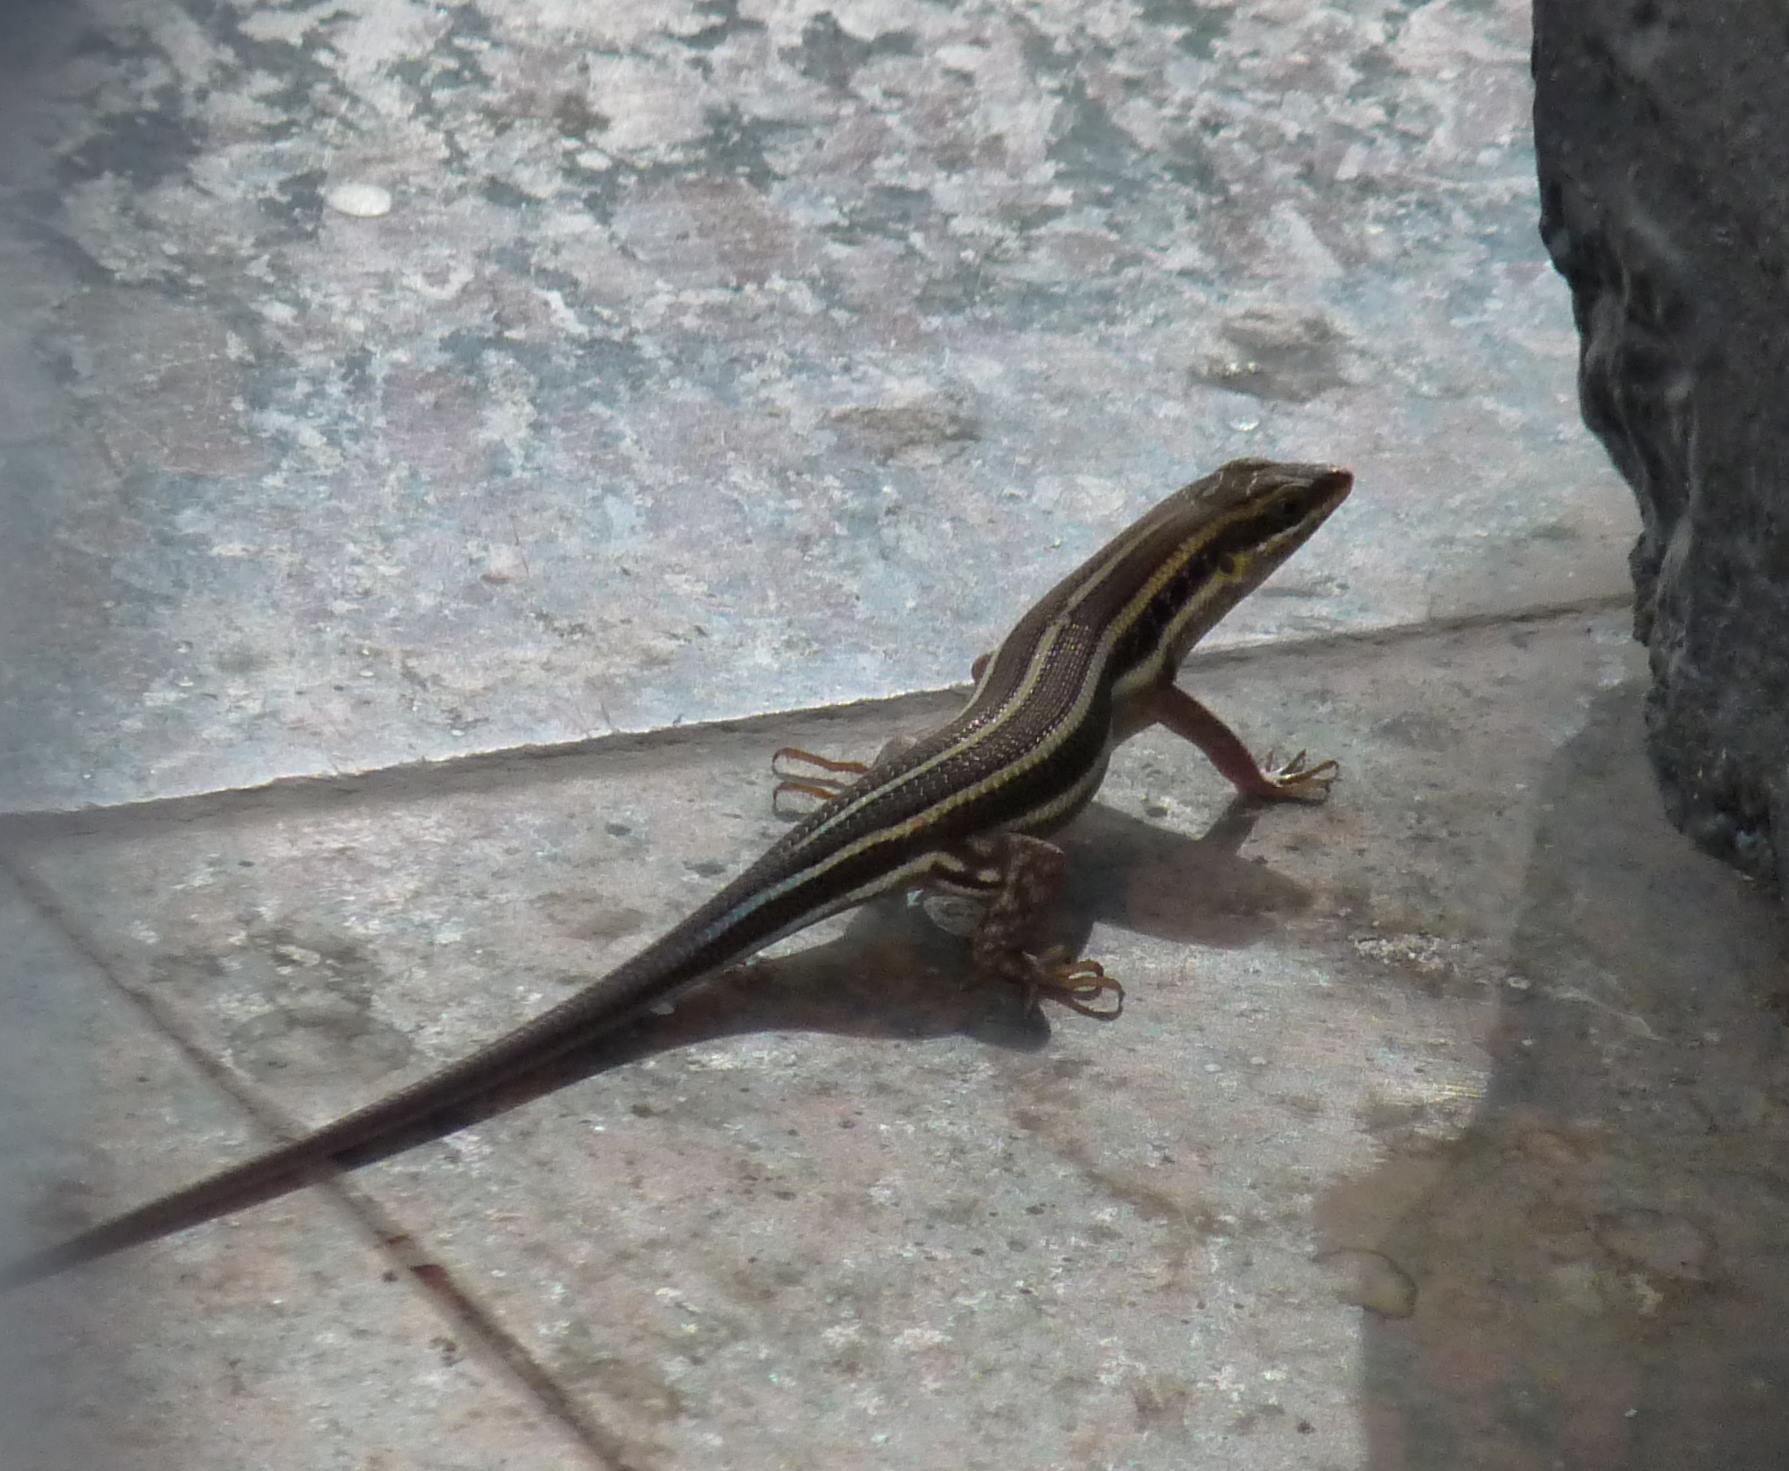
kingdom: Animalia
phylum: Chordata
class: Squamata
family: Scincidae
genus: Trachylepis
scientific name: Trachylepis quinquetaeniata
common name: African five-lined skink
